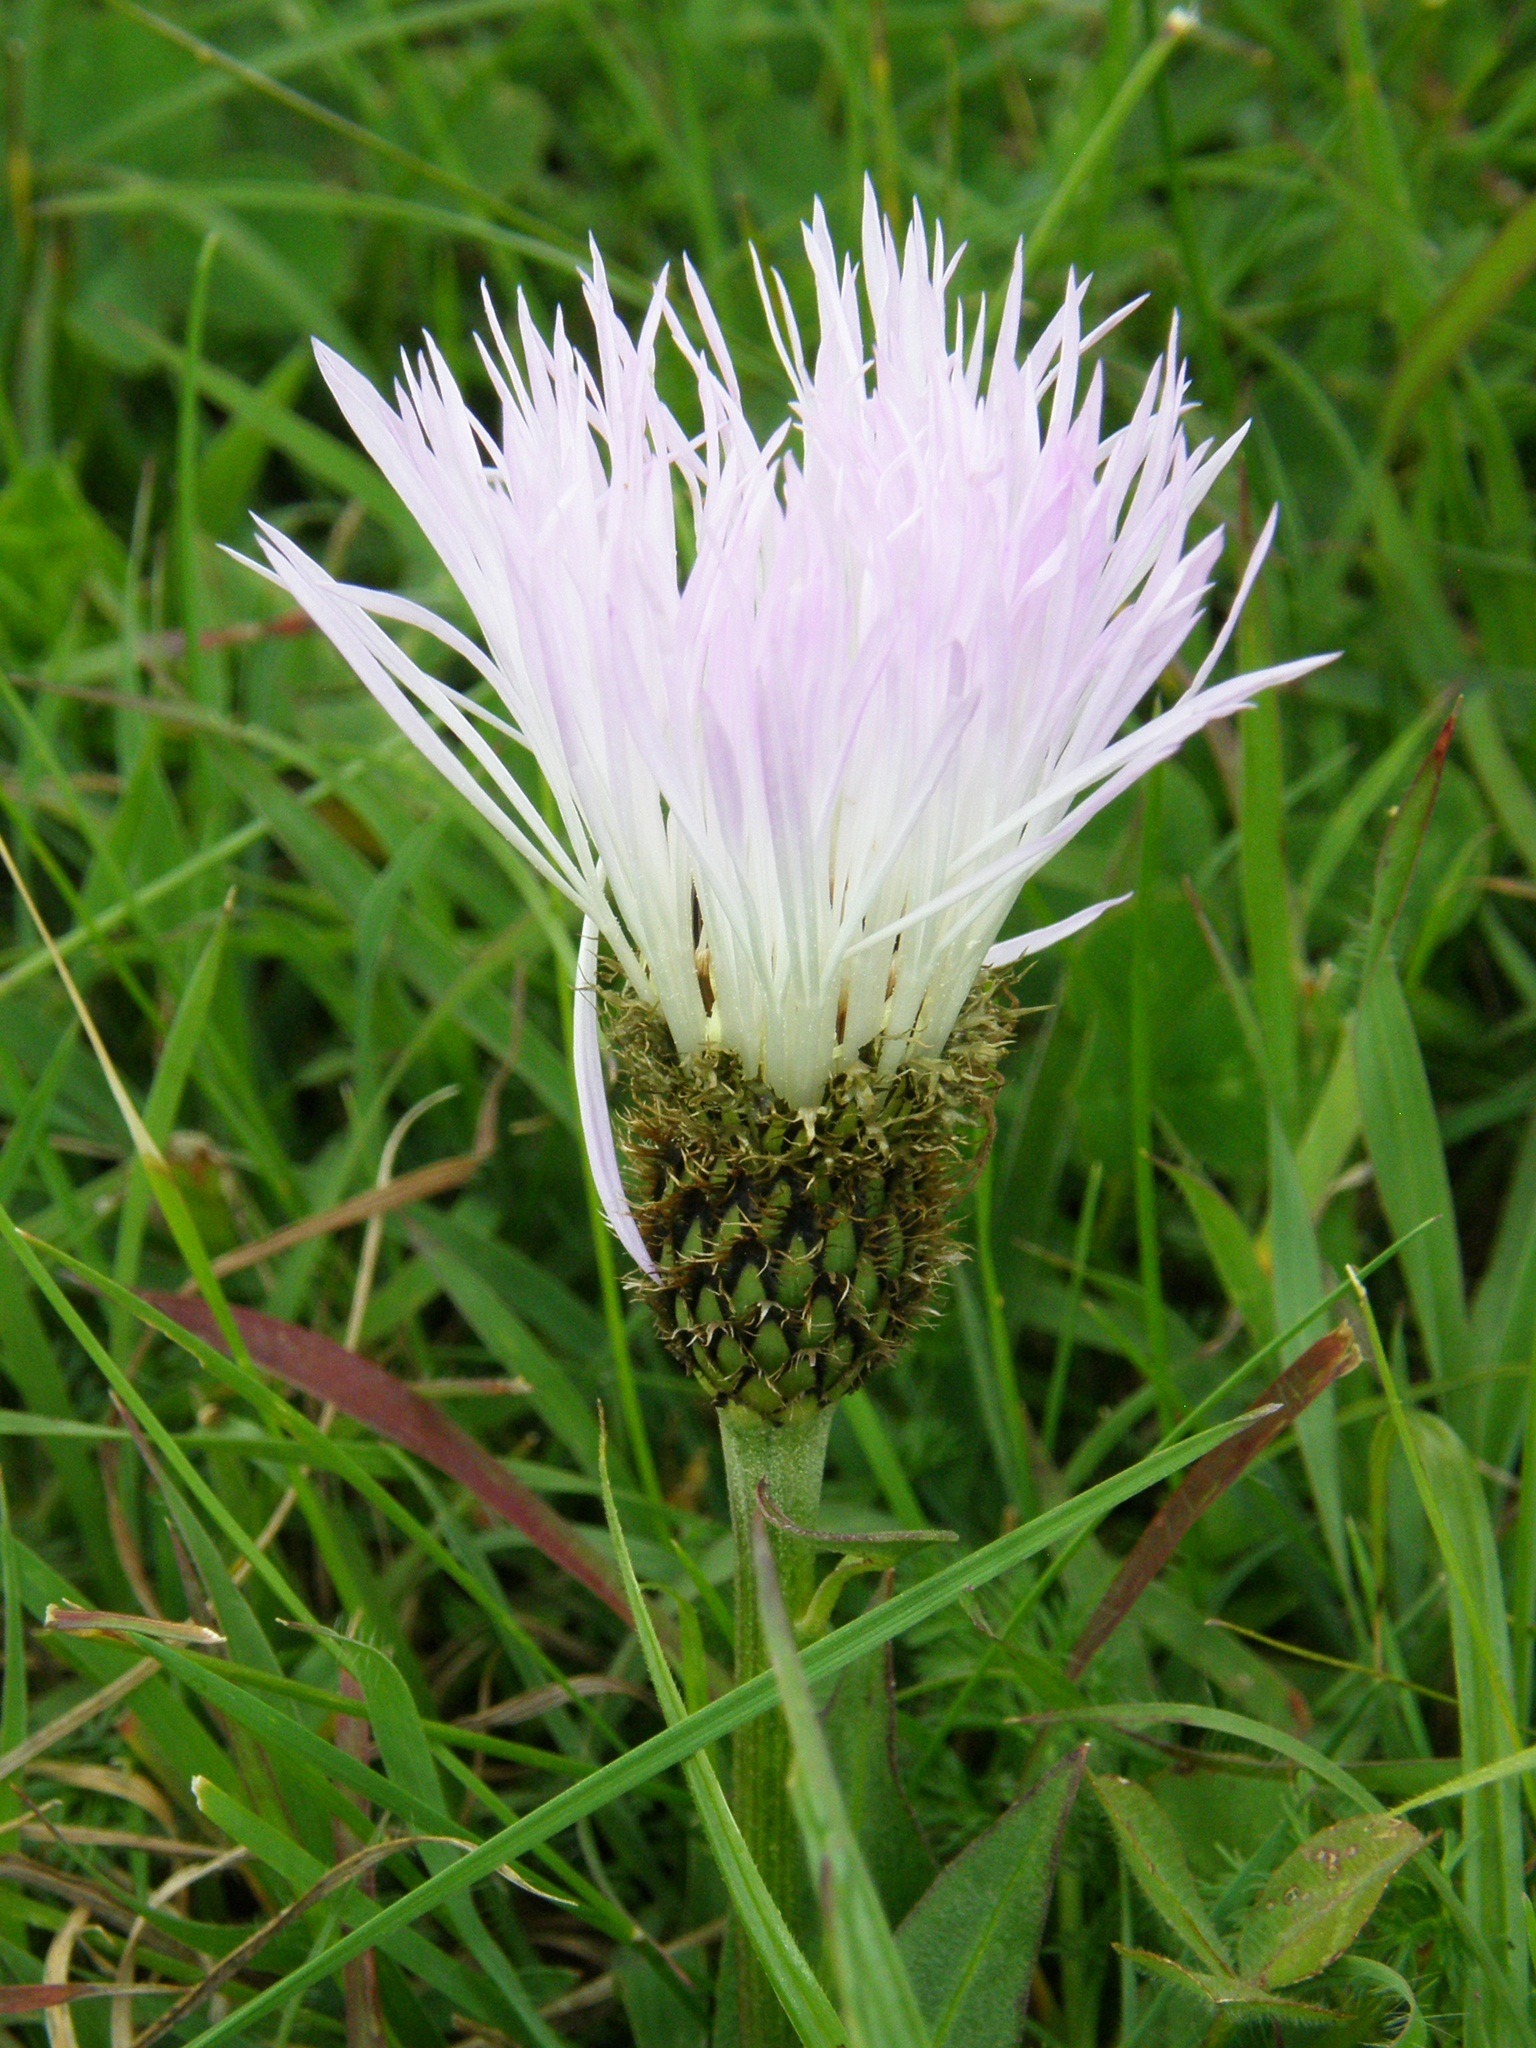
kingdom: Plantae
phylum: Tracheophyta
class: Magnoliopsida
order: Asterales
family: Asteraceae
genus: Plectocephalus
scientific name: Plectocephalus varians
